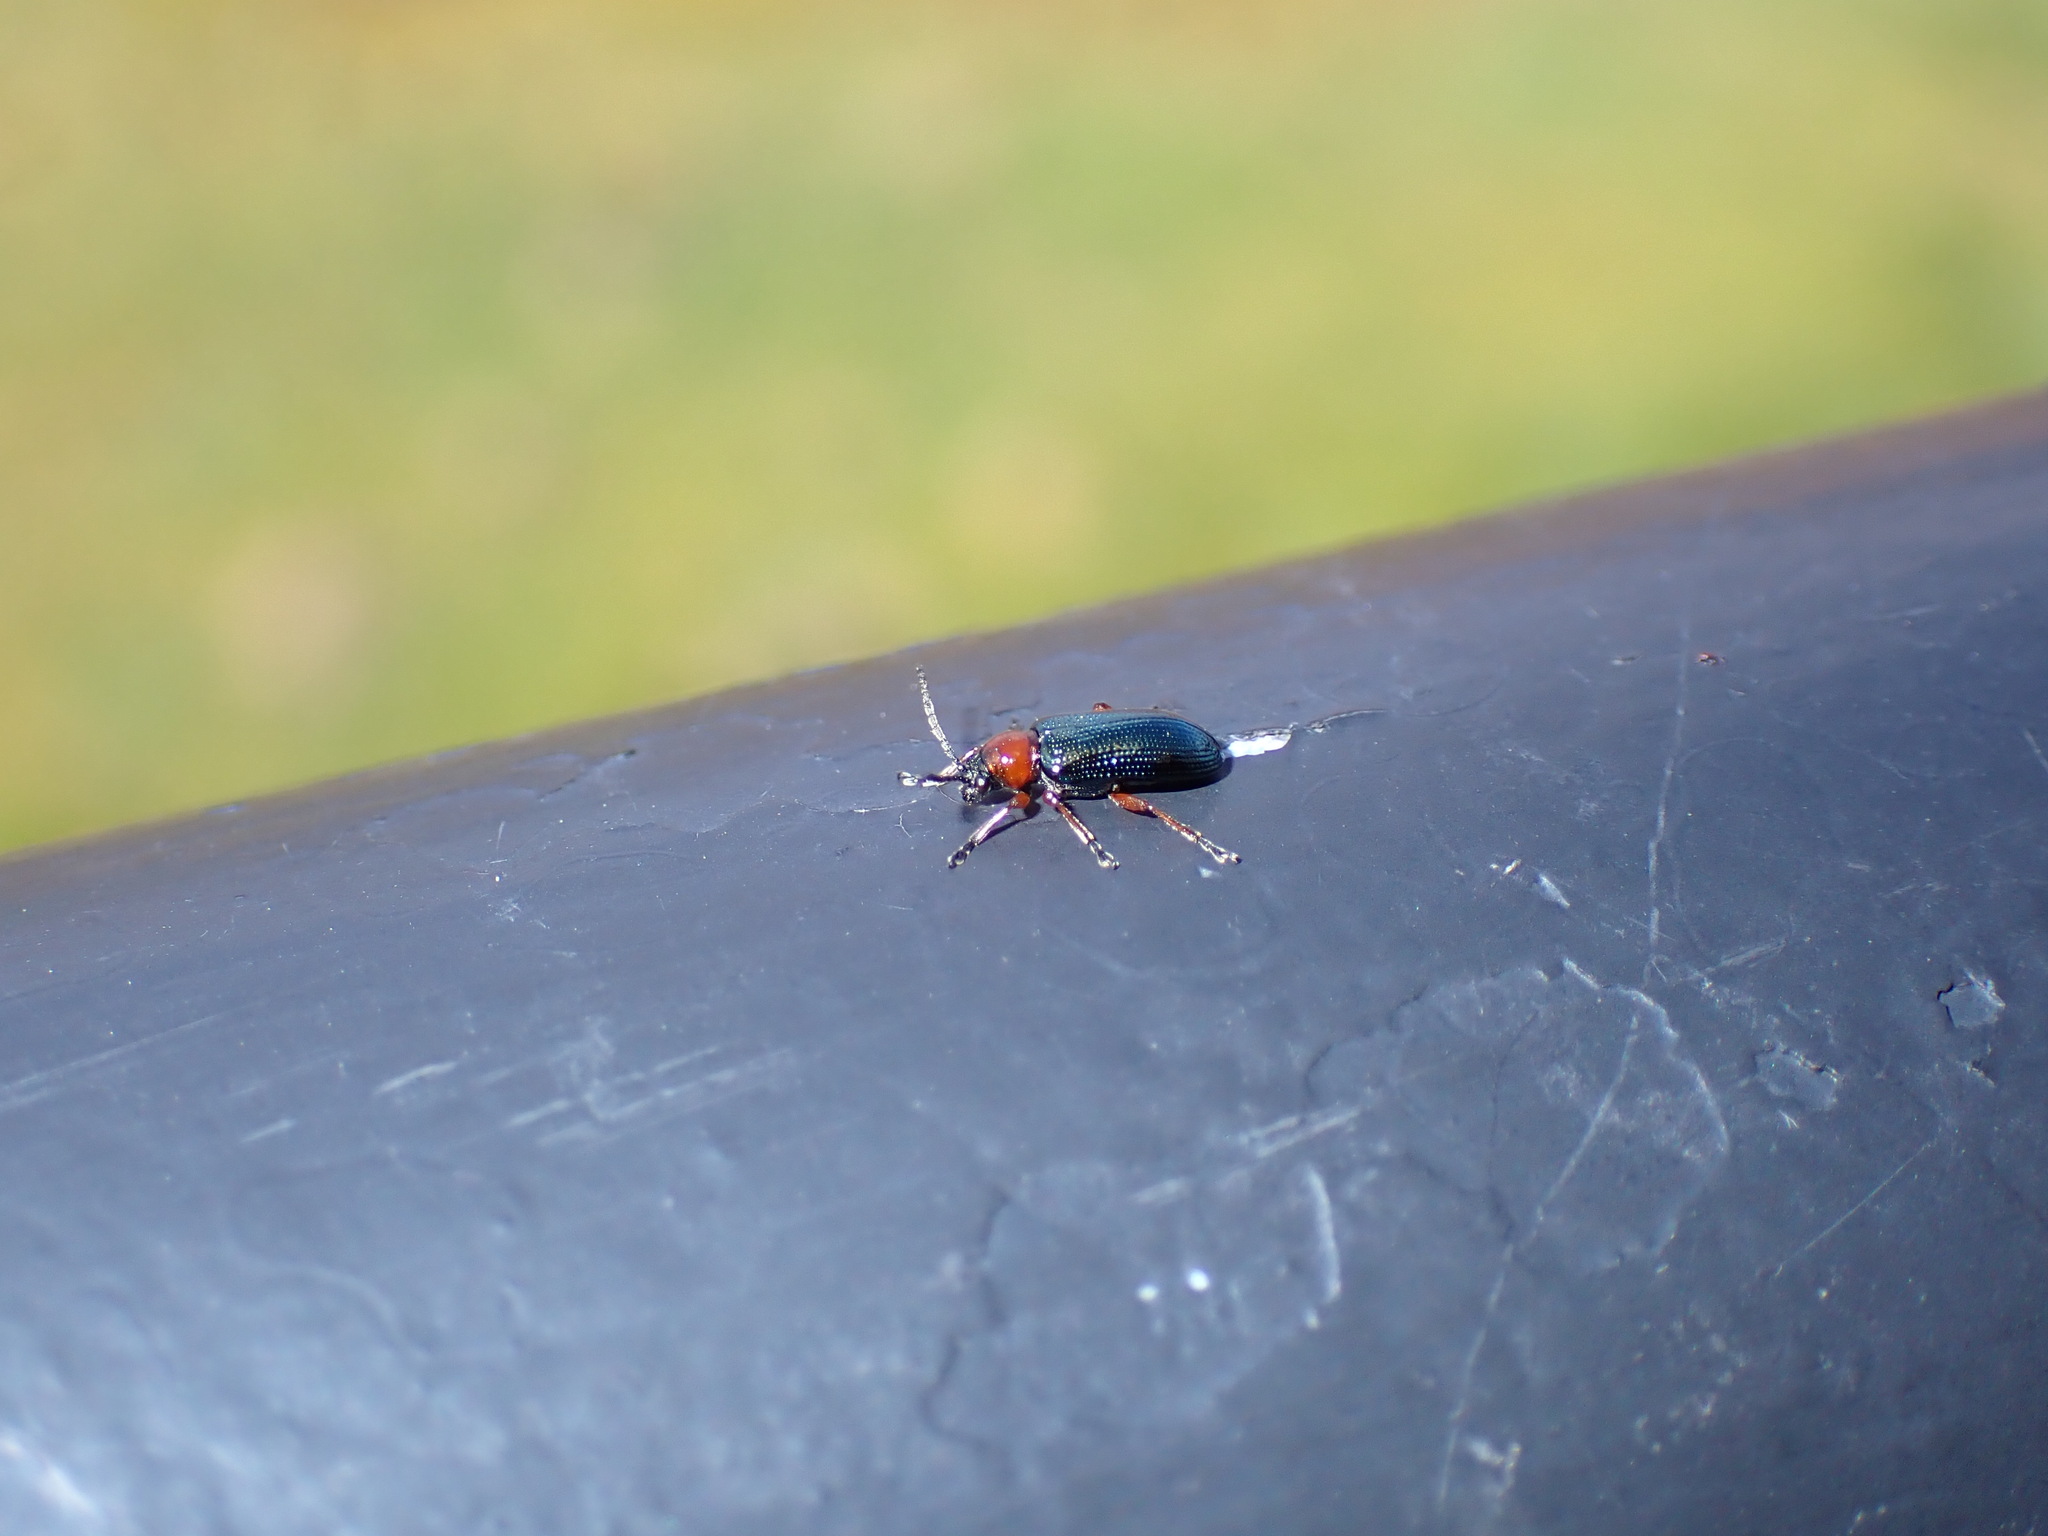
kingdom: Animalia
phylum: Arthropoda
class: Insecta
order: Coleoptera
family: Chrysomelidae
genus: Oulema
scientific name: Oulema
